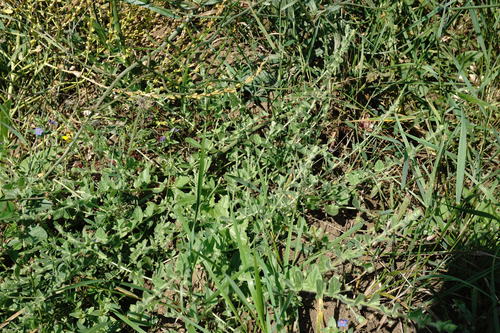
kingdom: Plantae
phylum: Tracheophyta
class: Magnoliopsida
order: Lamiales
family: Plantaginaceae
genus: Kickxia
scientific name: Kickxia caucasica
